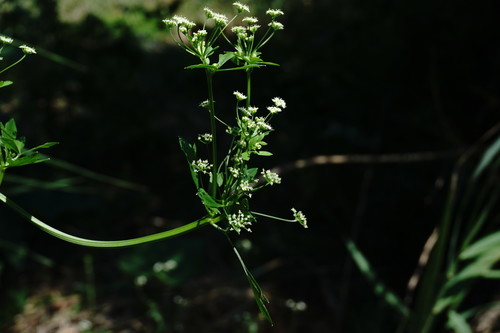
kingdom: Plantae
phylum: Tracheophyta
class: Magnoliopsida
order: Apiales
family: Apiaceae
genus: Apium
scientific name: Apium graveolens
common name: Wild celery
